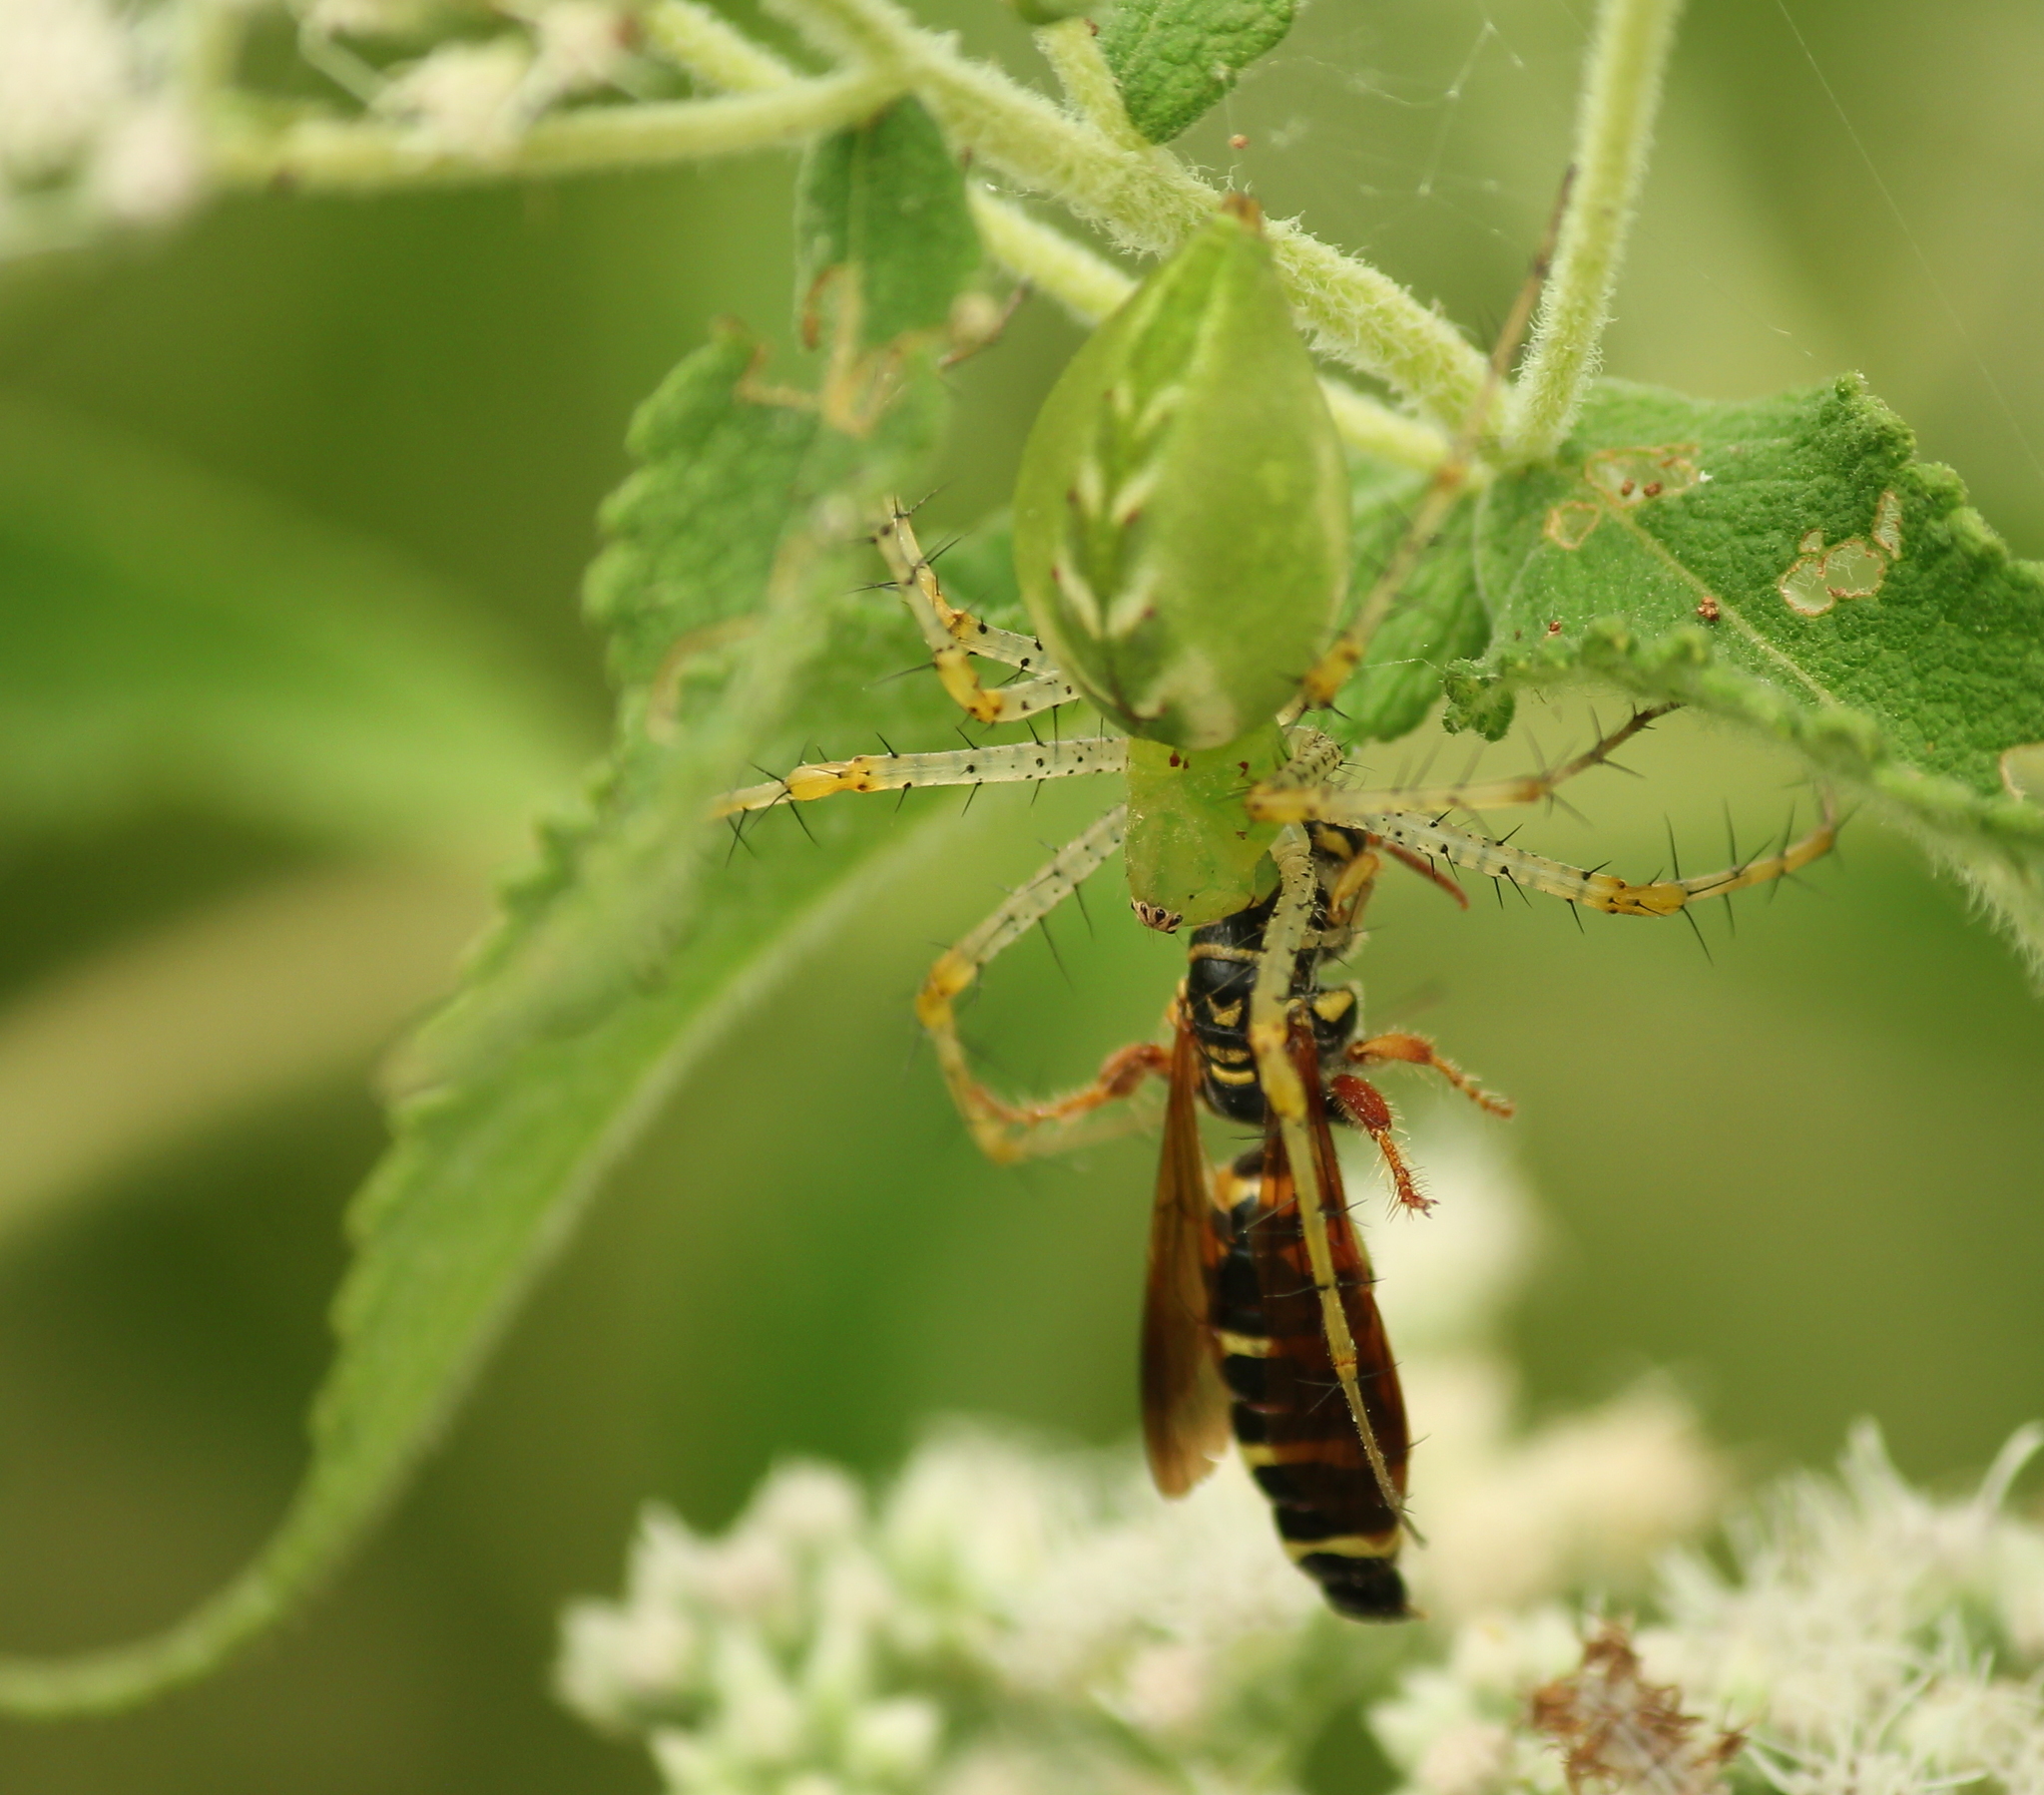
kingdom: Animalia
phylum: Arthropoda
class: Arachnida
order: Araneae
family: Oxyopidae
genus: Peucetia
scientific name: Peucetia viridans
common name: Lynx spiders
